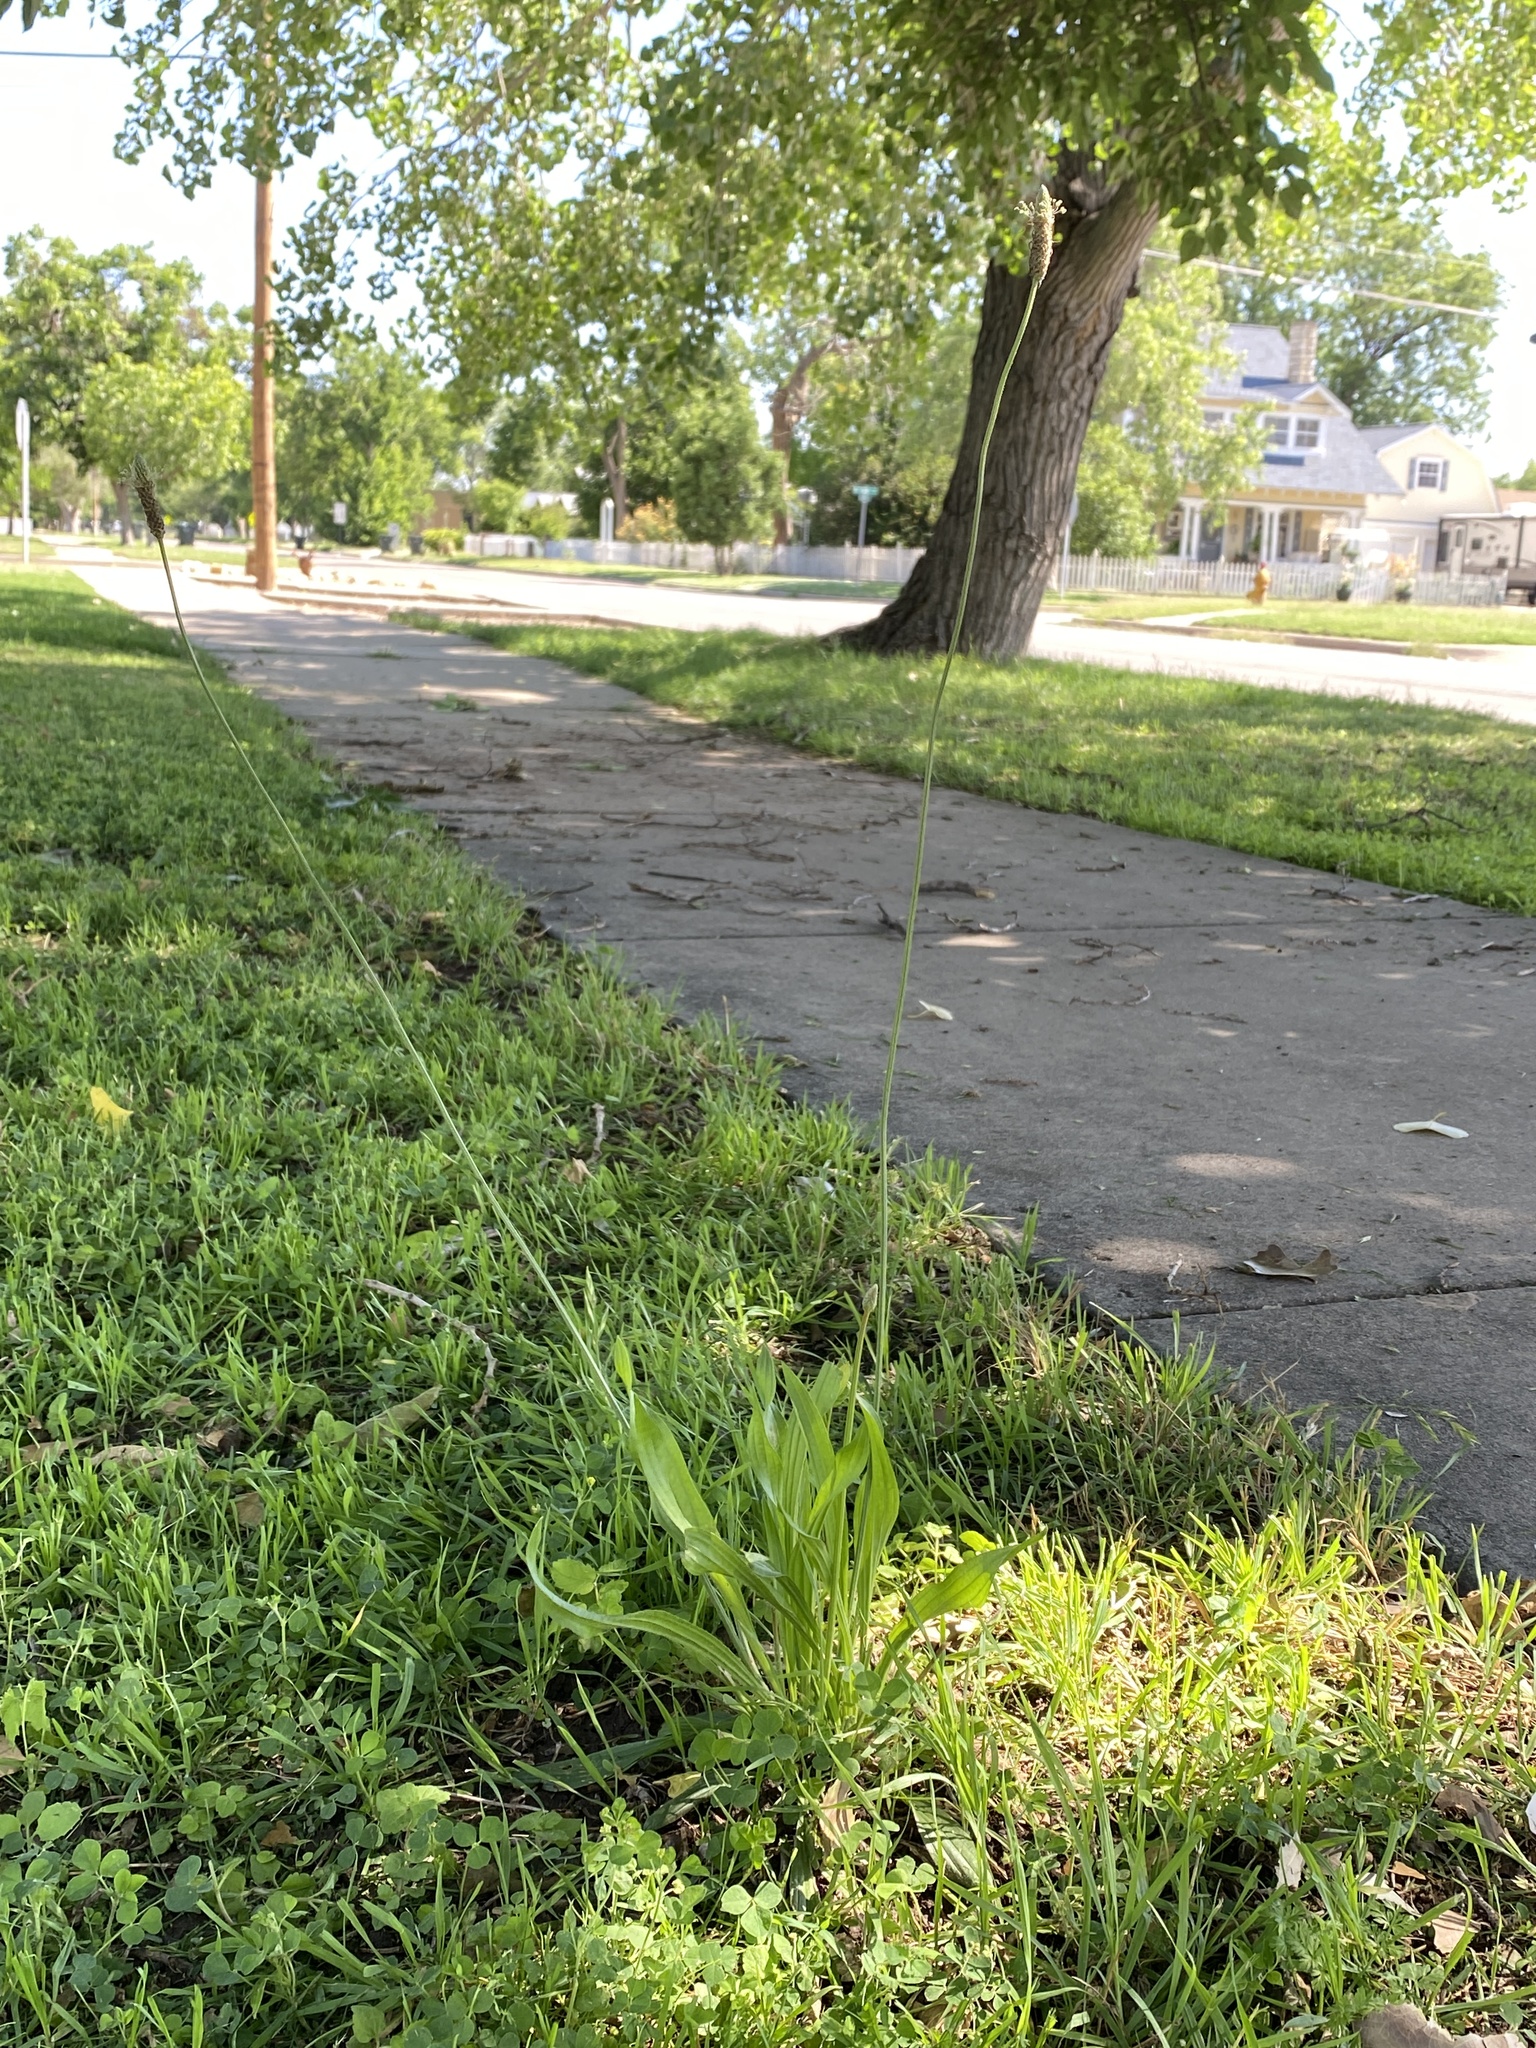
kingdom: Plantae
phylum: Tracheophyta
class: Magnoliopsida
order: Lamiales
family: Plantaginaceae
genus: Plantago
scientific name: Plantago lanceolata
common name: Ribwort plantain
